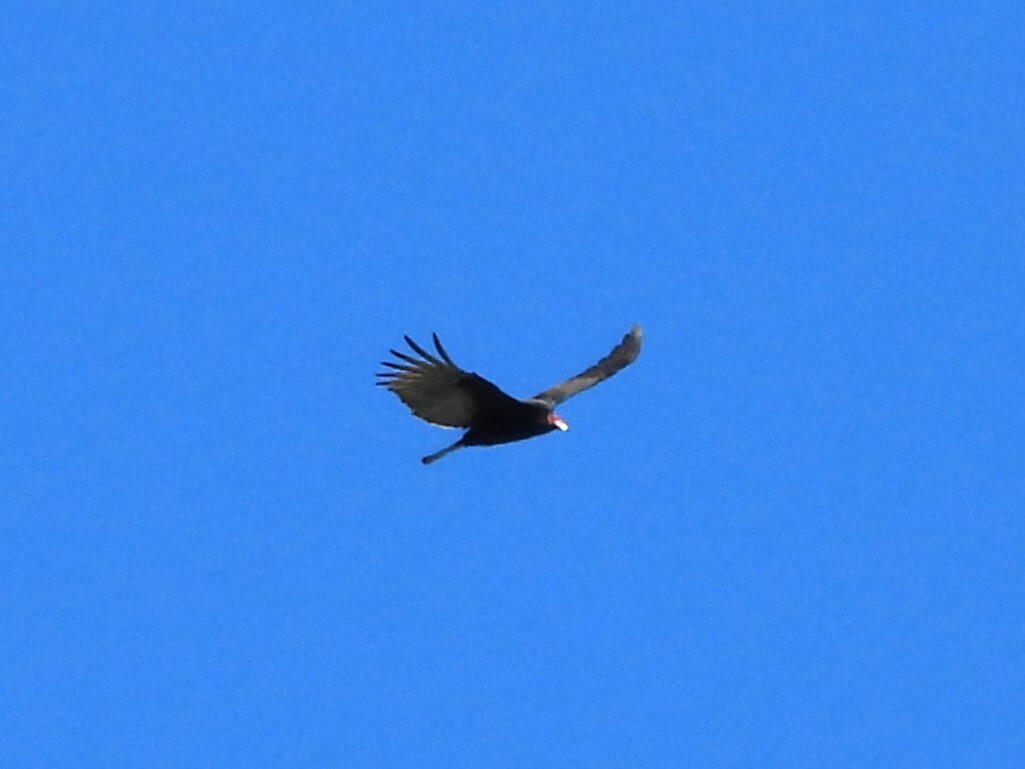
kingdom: Animalia
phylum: Chordata
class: Aves
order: Accipitriformes
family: Cathartidae
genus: Cathartes
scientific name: Cathartes aura
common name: Turkey vulture
